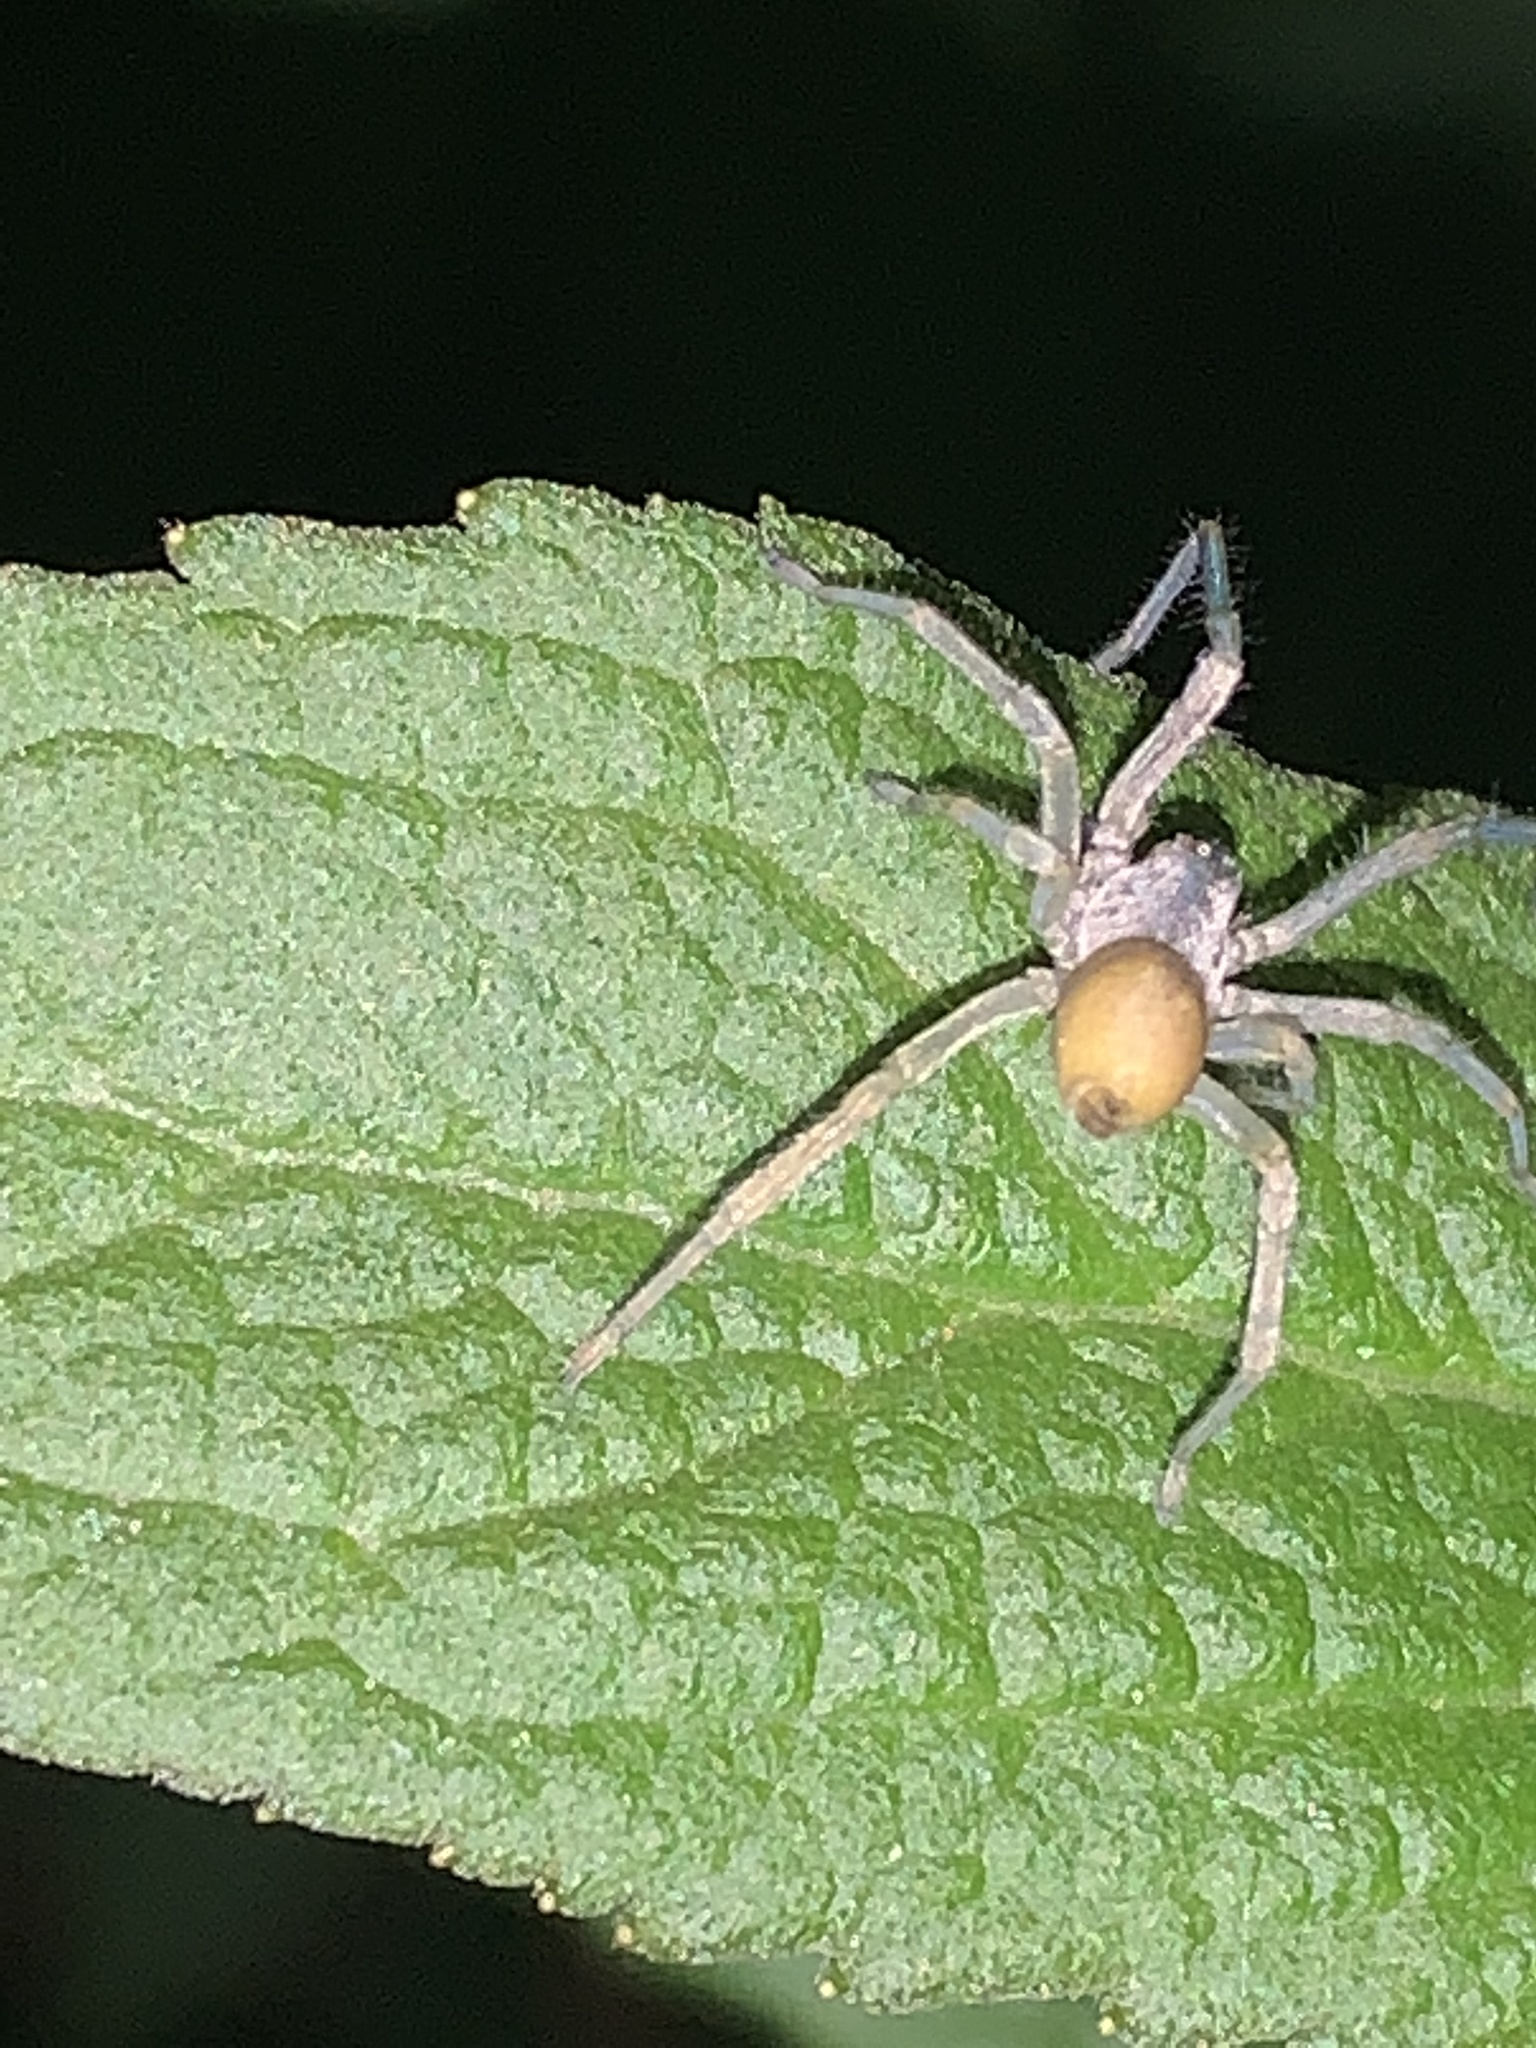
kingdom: Animalia
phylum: Arthropoda
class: Arachnida
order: Araneae
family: Cheiracanthiidae
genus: Cheiracanthium
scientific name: Cheiracanthium mildei
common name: Northern yellow sac spider
